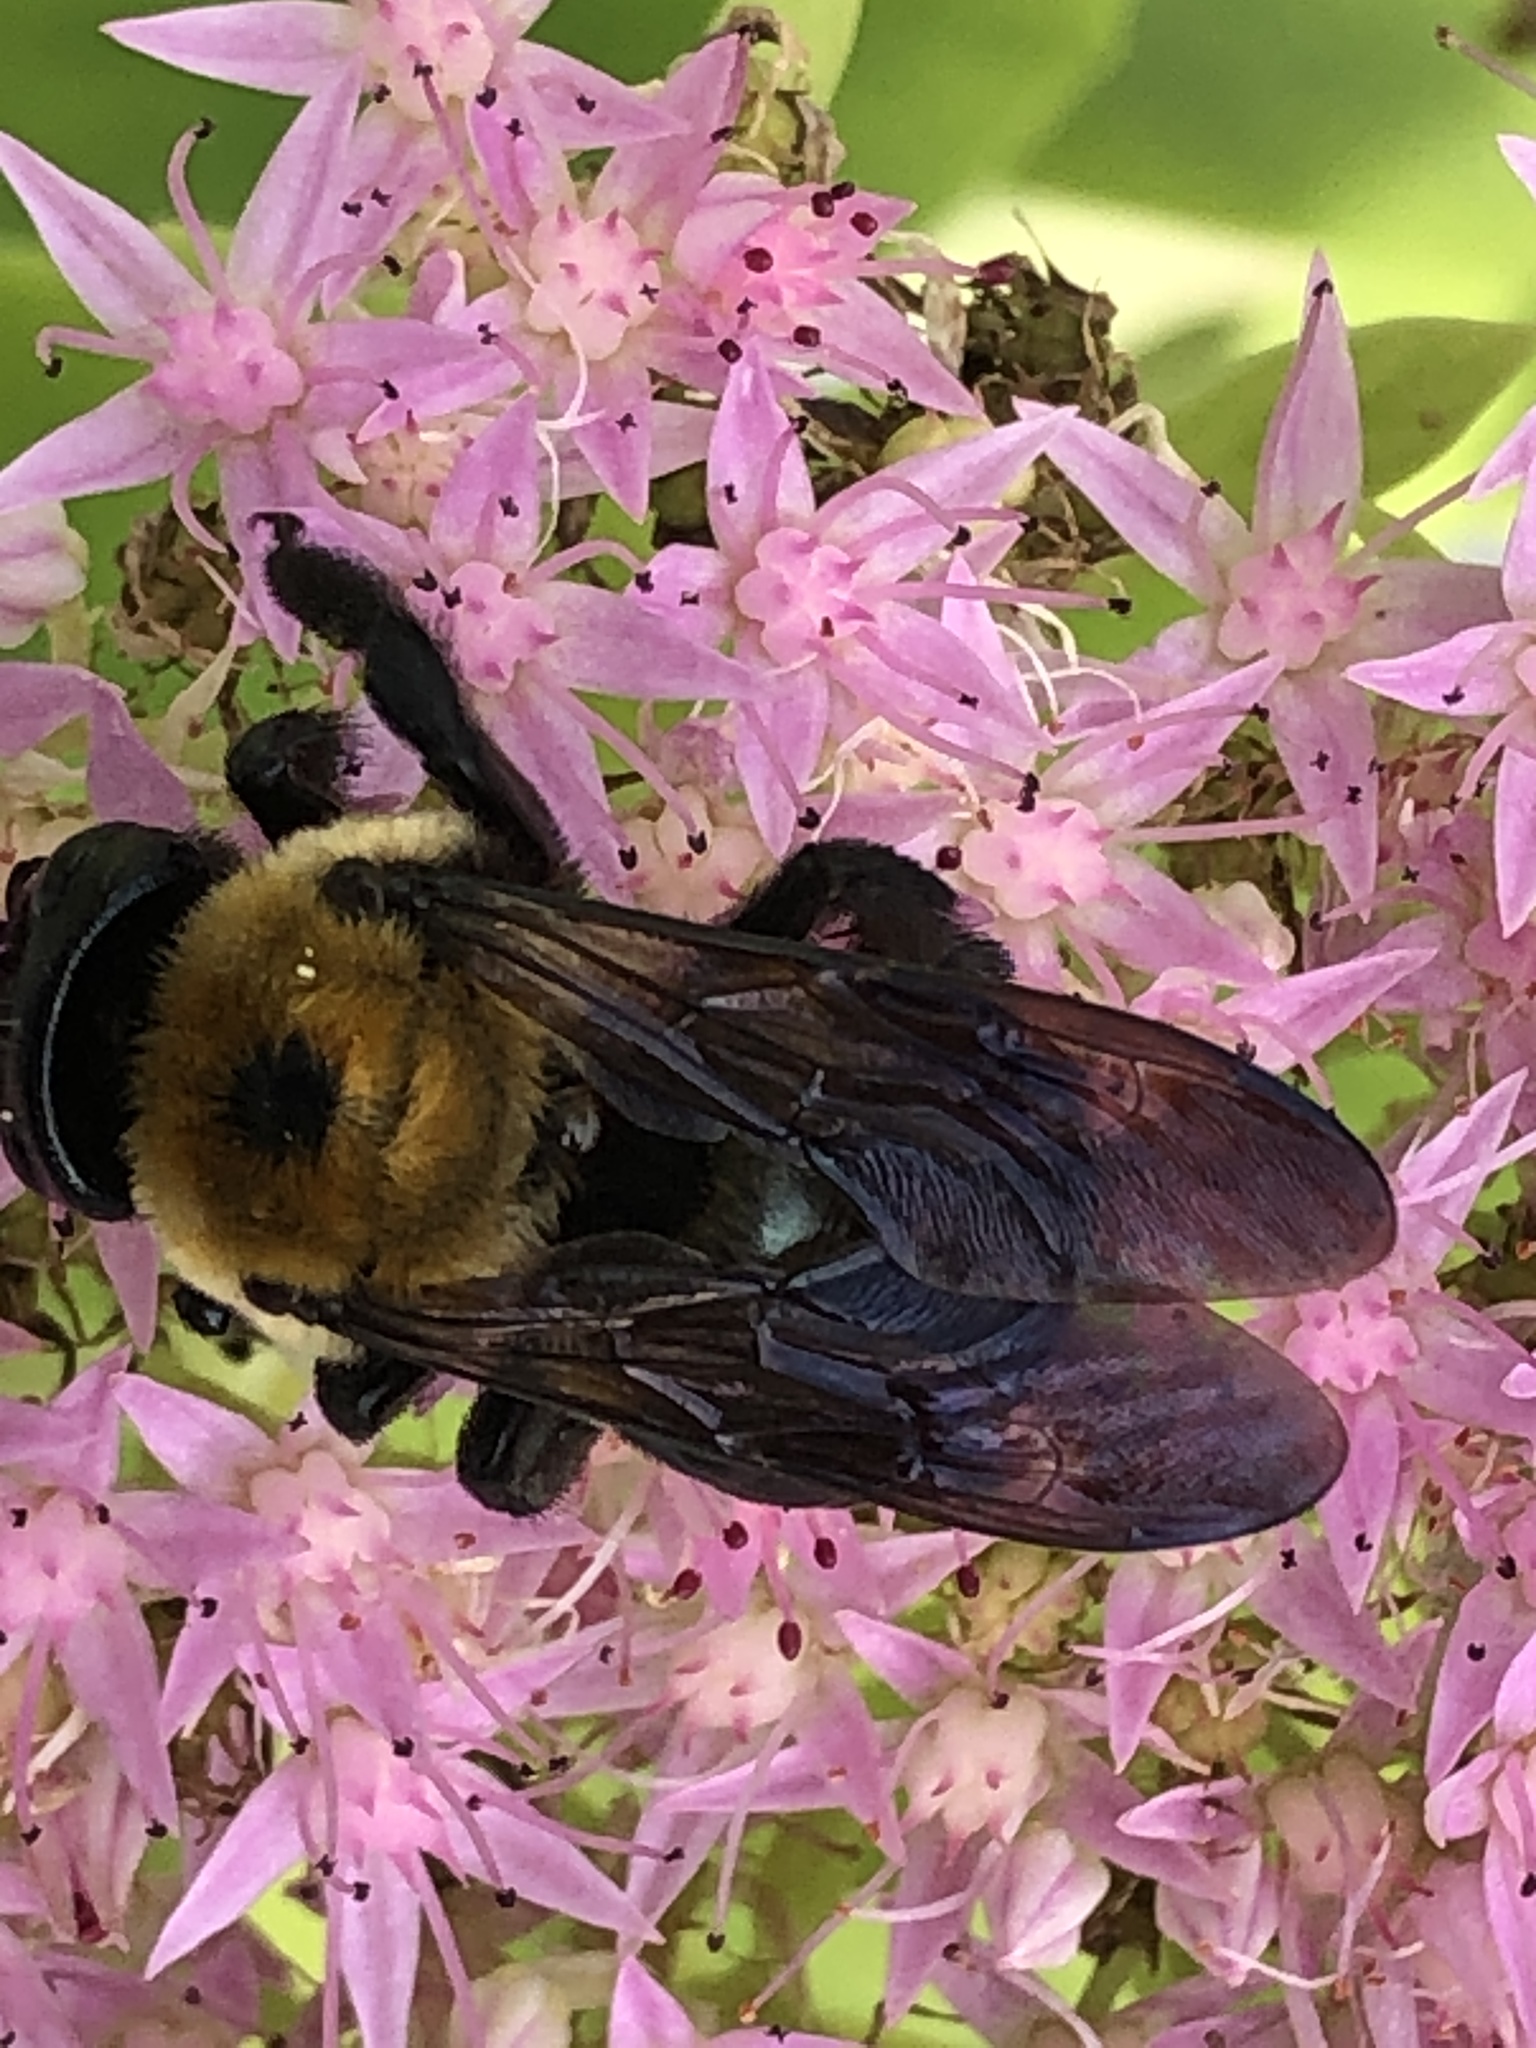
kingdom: Animalia
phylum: Arthropoda
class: Insecta
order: Hymenoptera
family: Apidae
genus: Xylocopa
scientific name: Xylocopa virginica
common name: Carpenter bee
